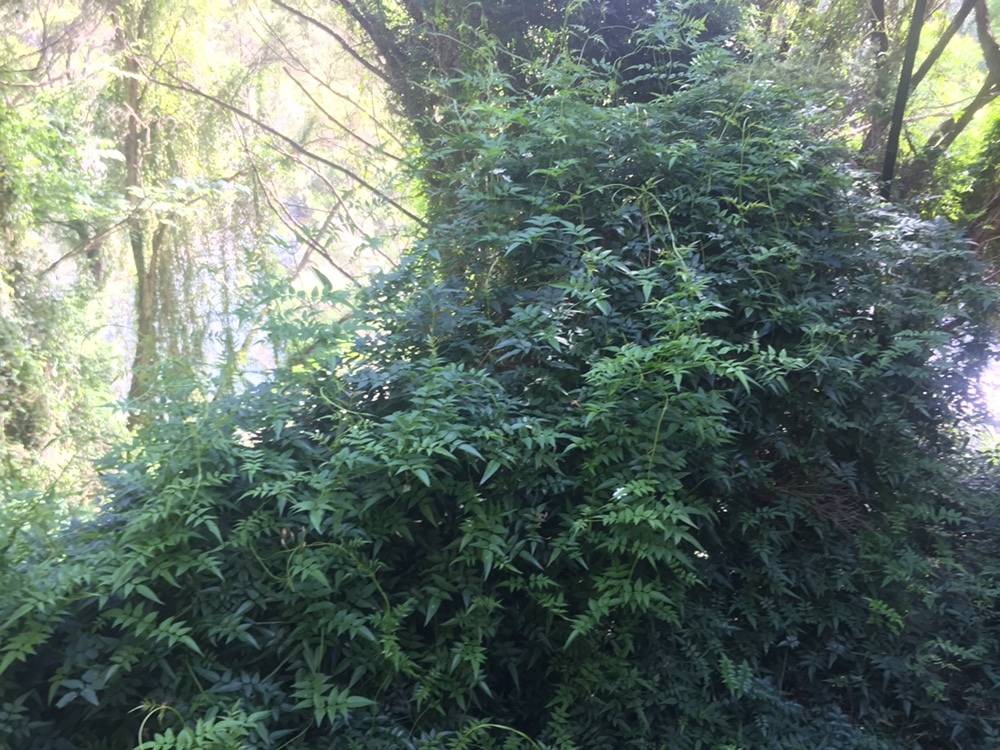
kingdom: Plantae
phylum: Tracheophyta
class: Magnoliopsida
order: Lamiales
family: Oleaceae
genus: Jasminum
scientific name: Jasminum polyanthum
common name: Pink jasmine
